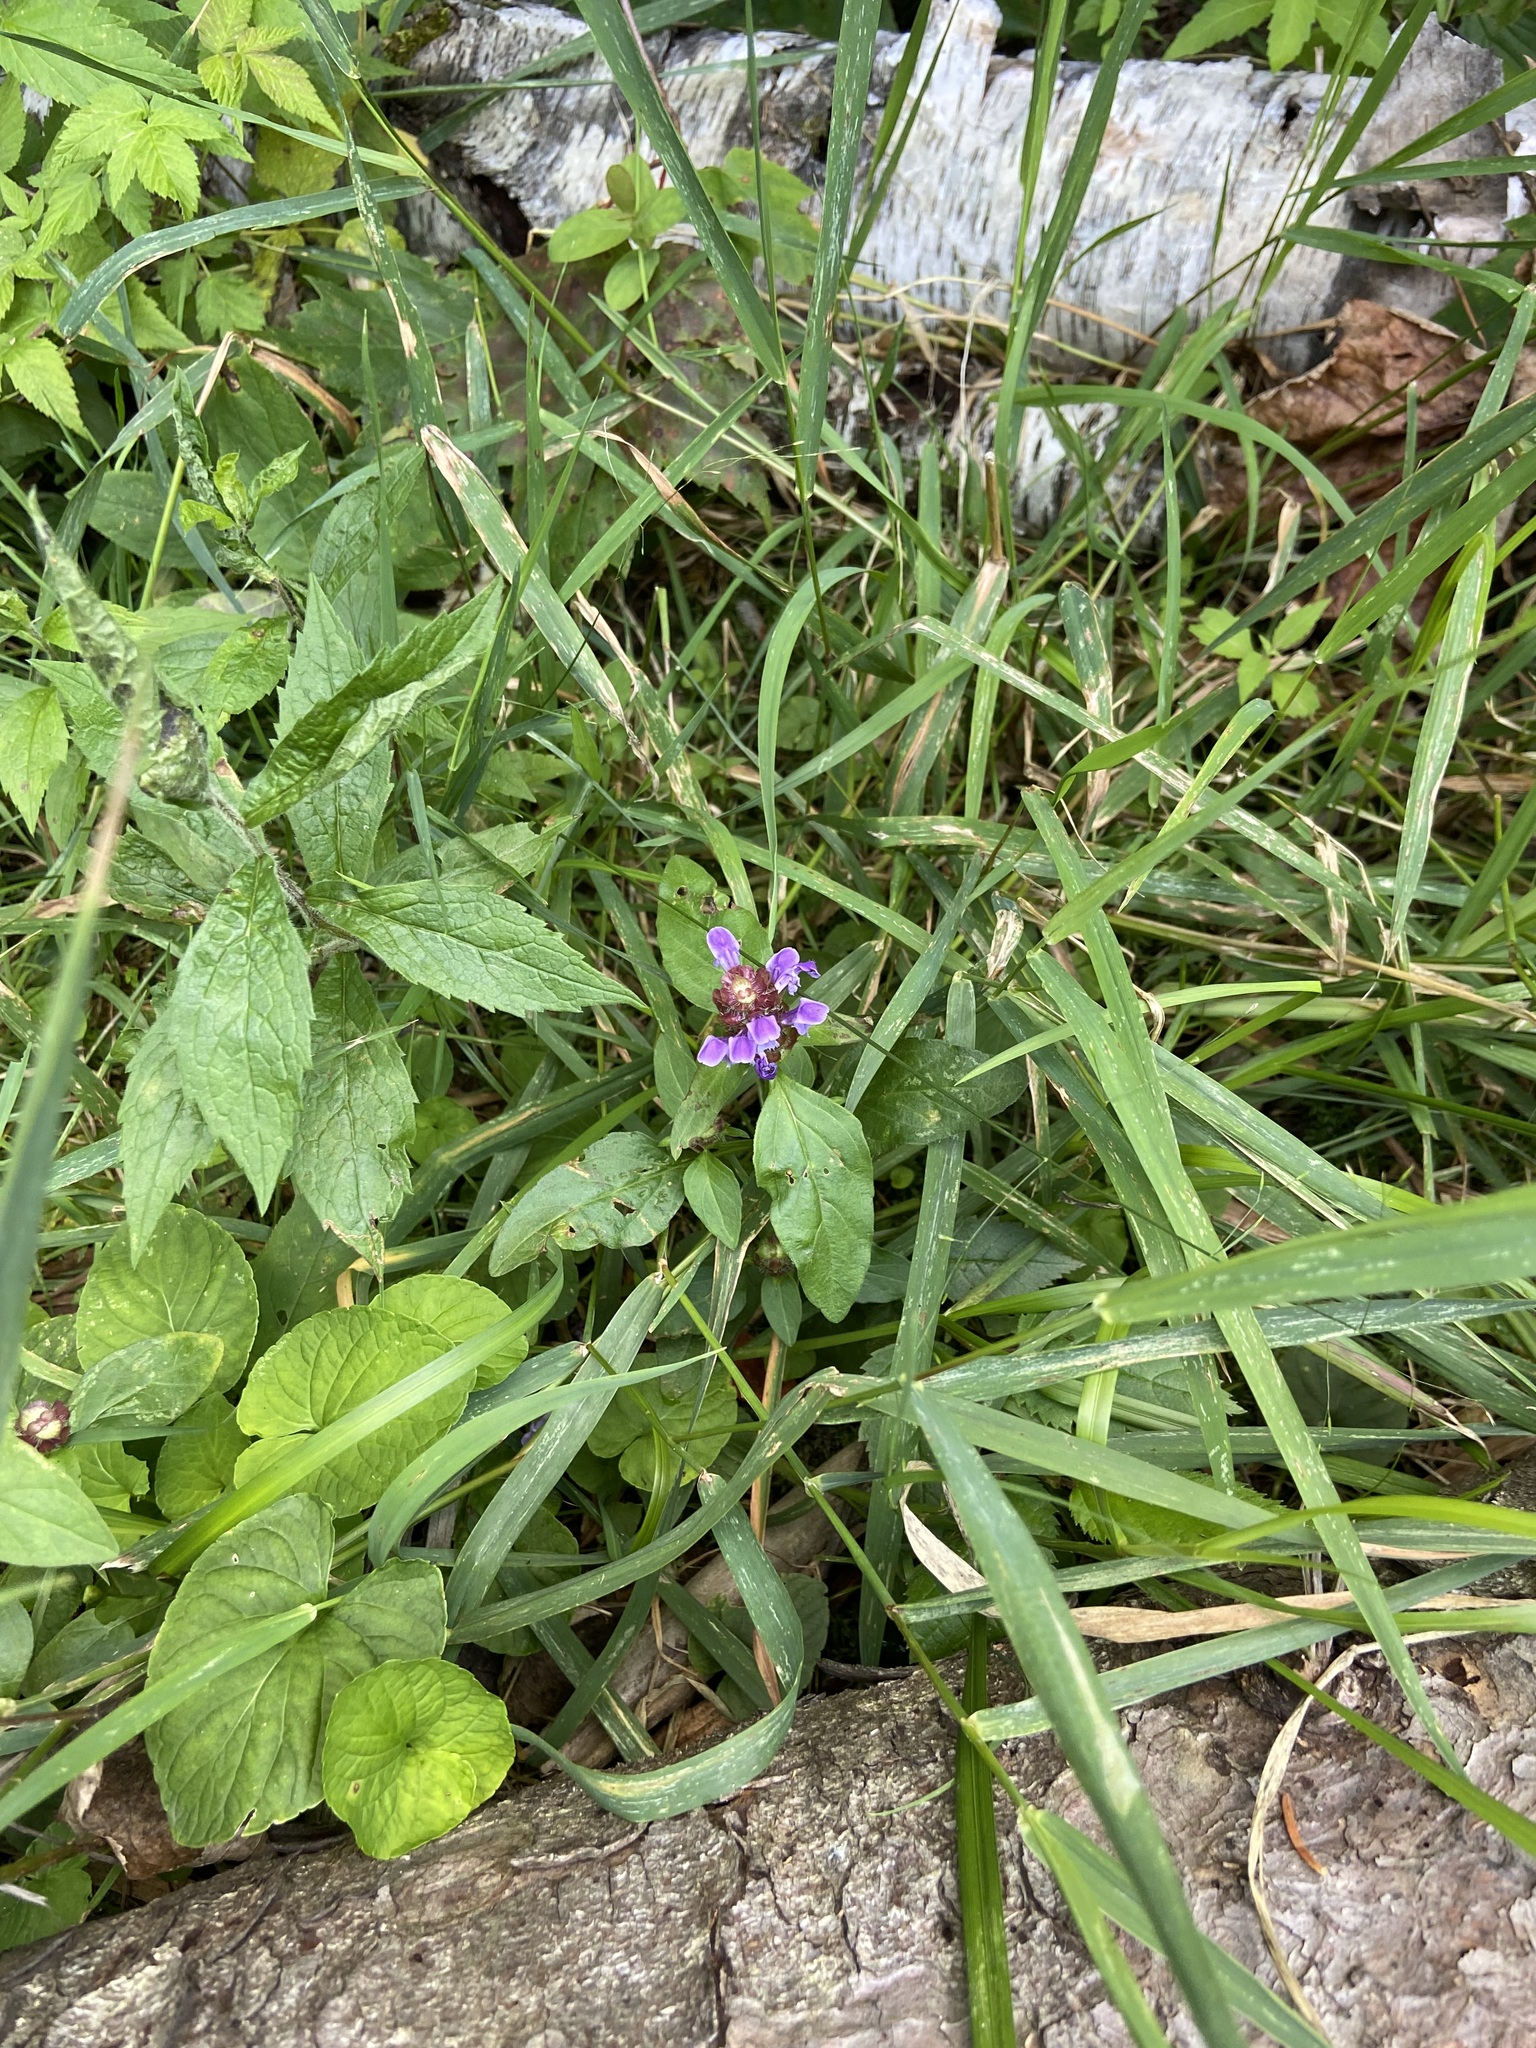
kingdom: Plantae
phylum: Tracheophyta
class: Magnoliopsida
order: Lamiales
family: Lamiaceae
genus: Prunella
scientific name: Prunella vulgaris
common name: Heal-all
